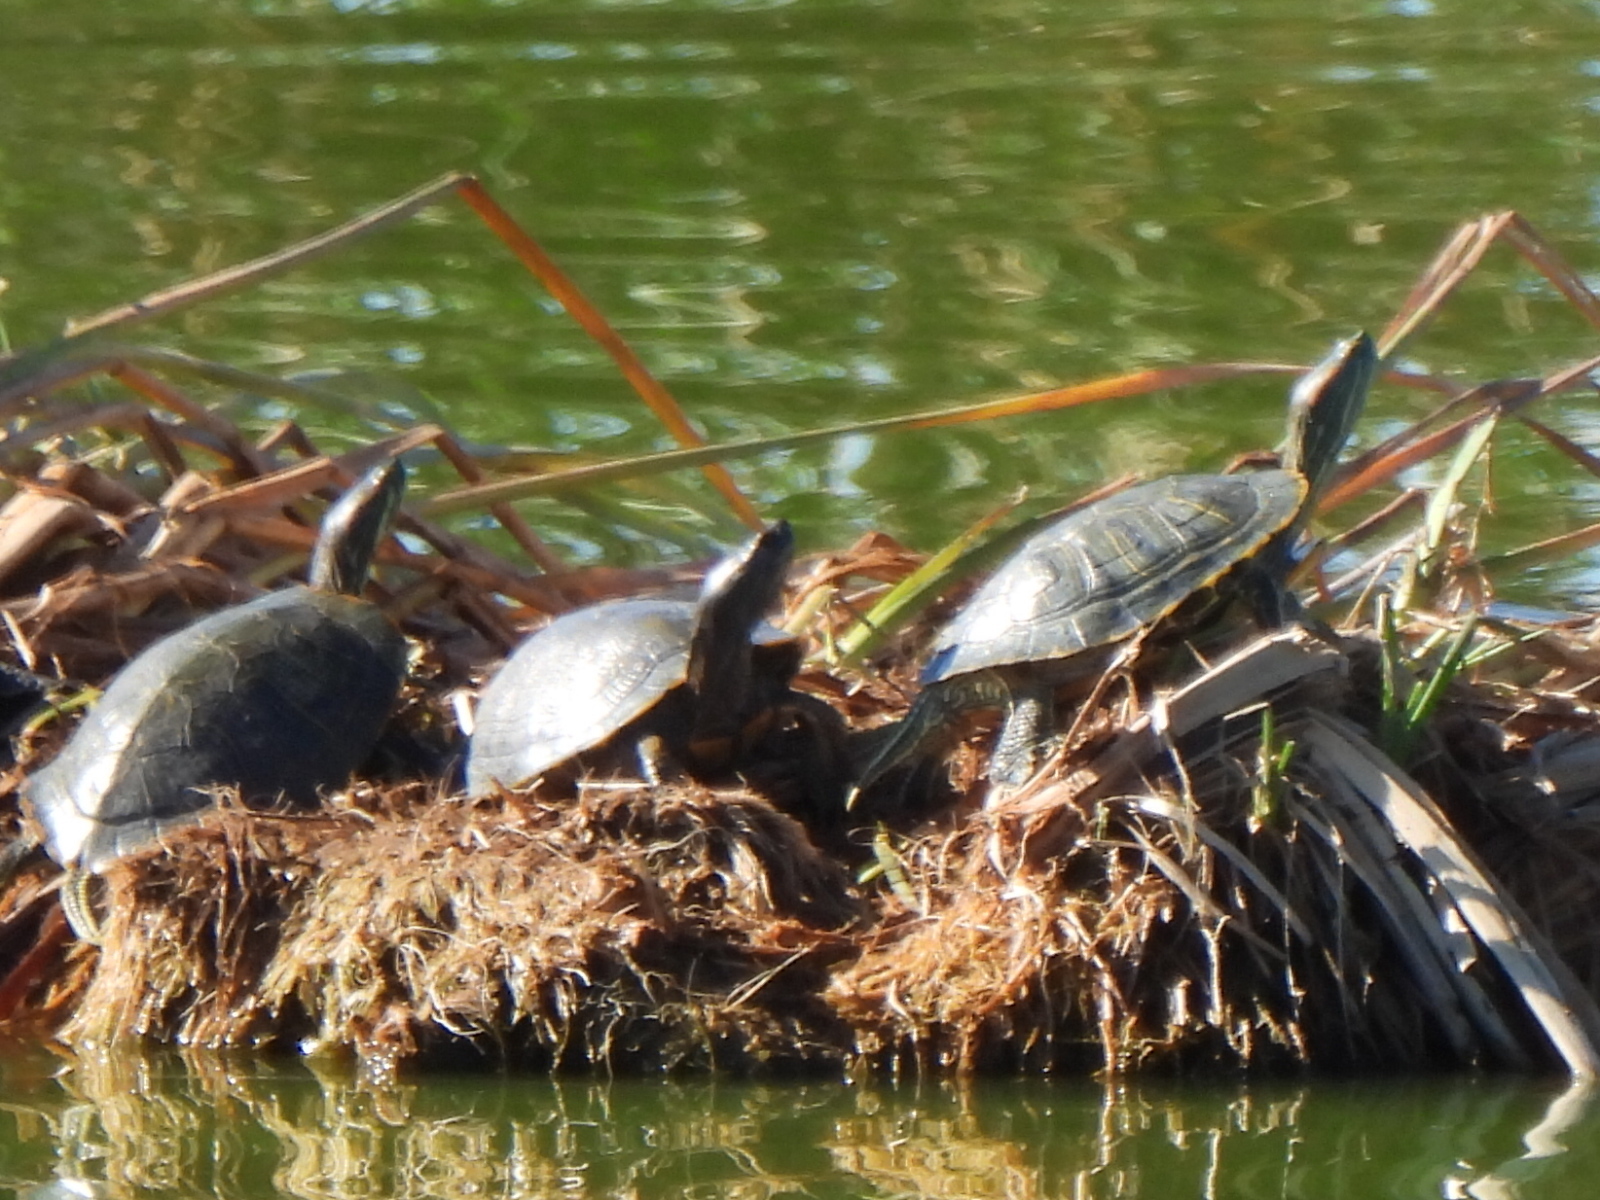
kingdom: Animalia
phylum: Chordata
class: Testudines
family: Emydidae
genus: Trachemys
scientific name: Trachemys scripta
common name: Slider
